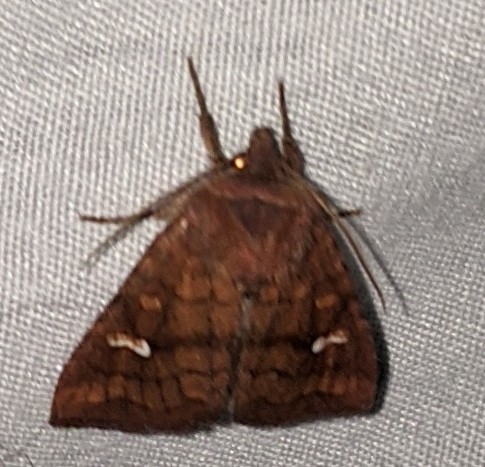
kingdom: Animalia
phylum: Arthropoda
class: Insecta
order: Lepidoptera
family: Noctuidae
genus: Tricholita
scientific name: Tricholita signata
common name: Signate quaker
